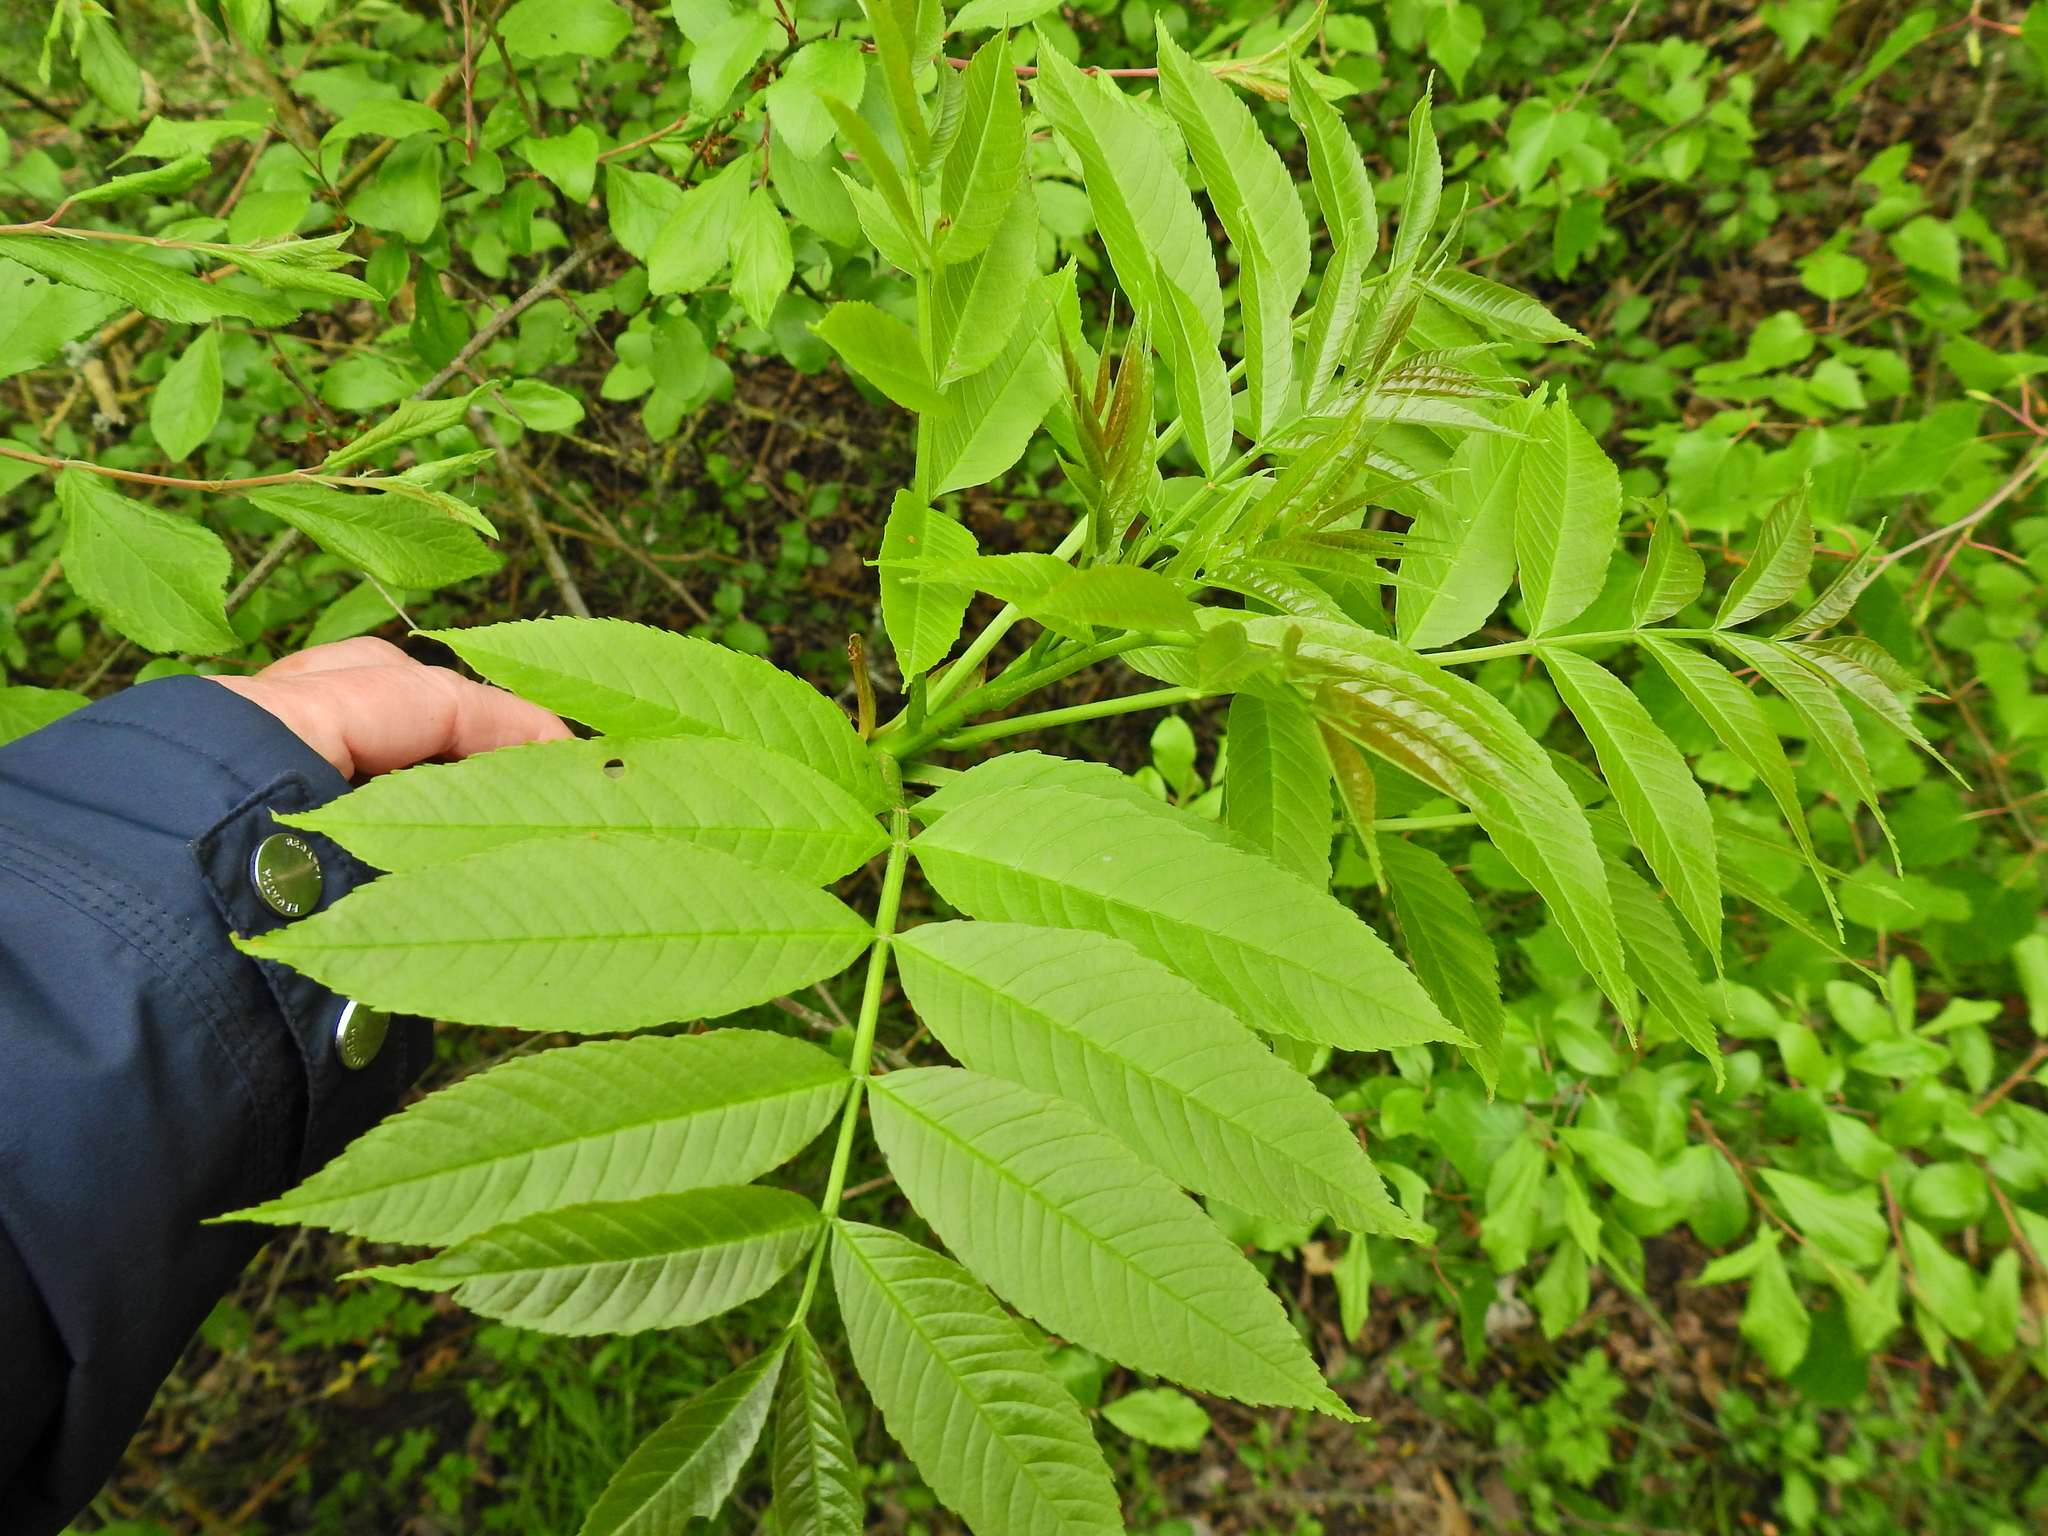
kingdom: Plantae
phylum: Tracheophyta
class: Magnoliopsida
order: Lamiales
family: Oleaceae
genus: Fraxinus
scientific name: Fraxinus excelsior
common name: European ash
